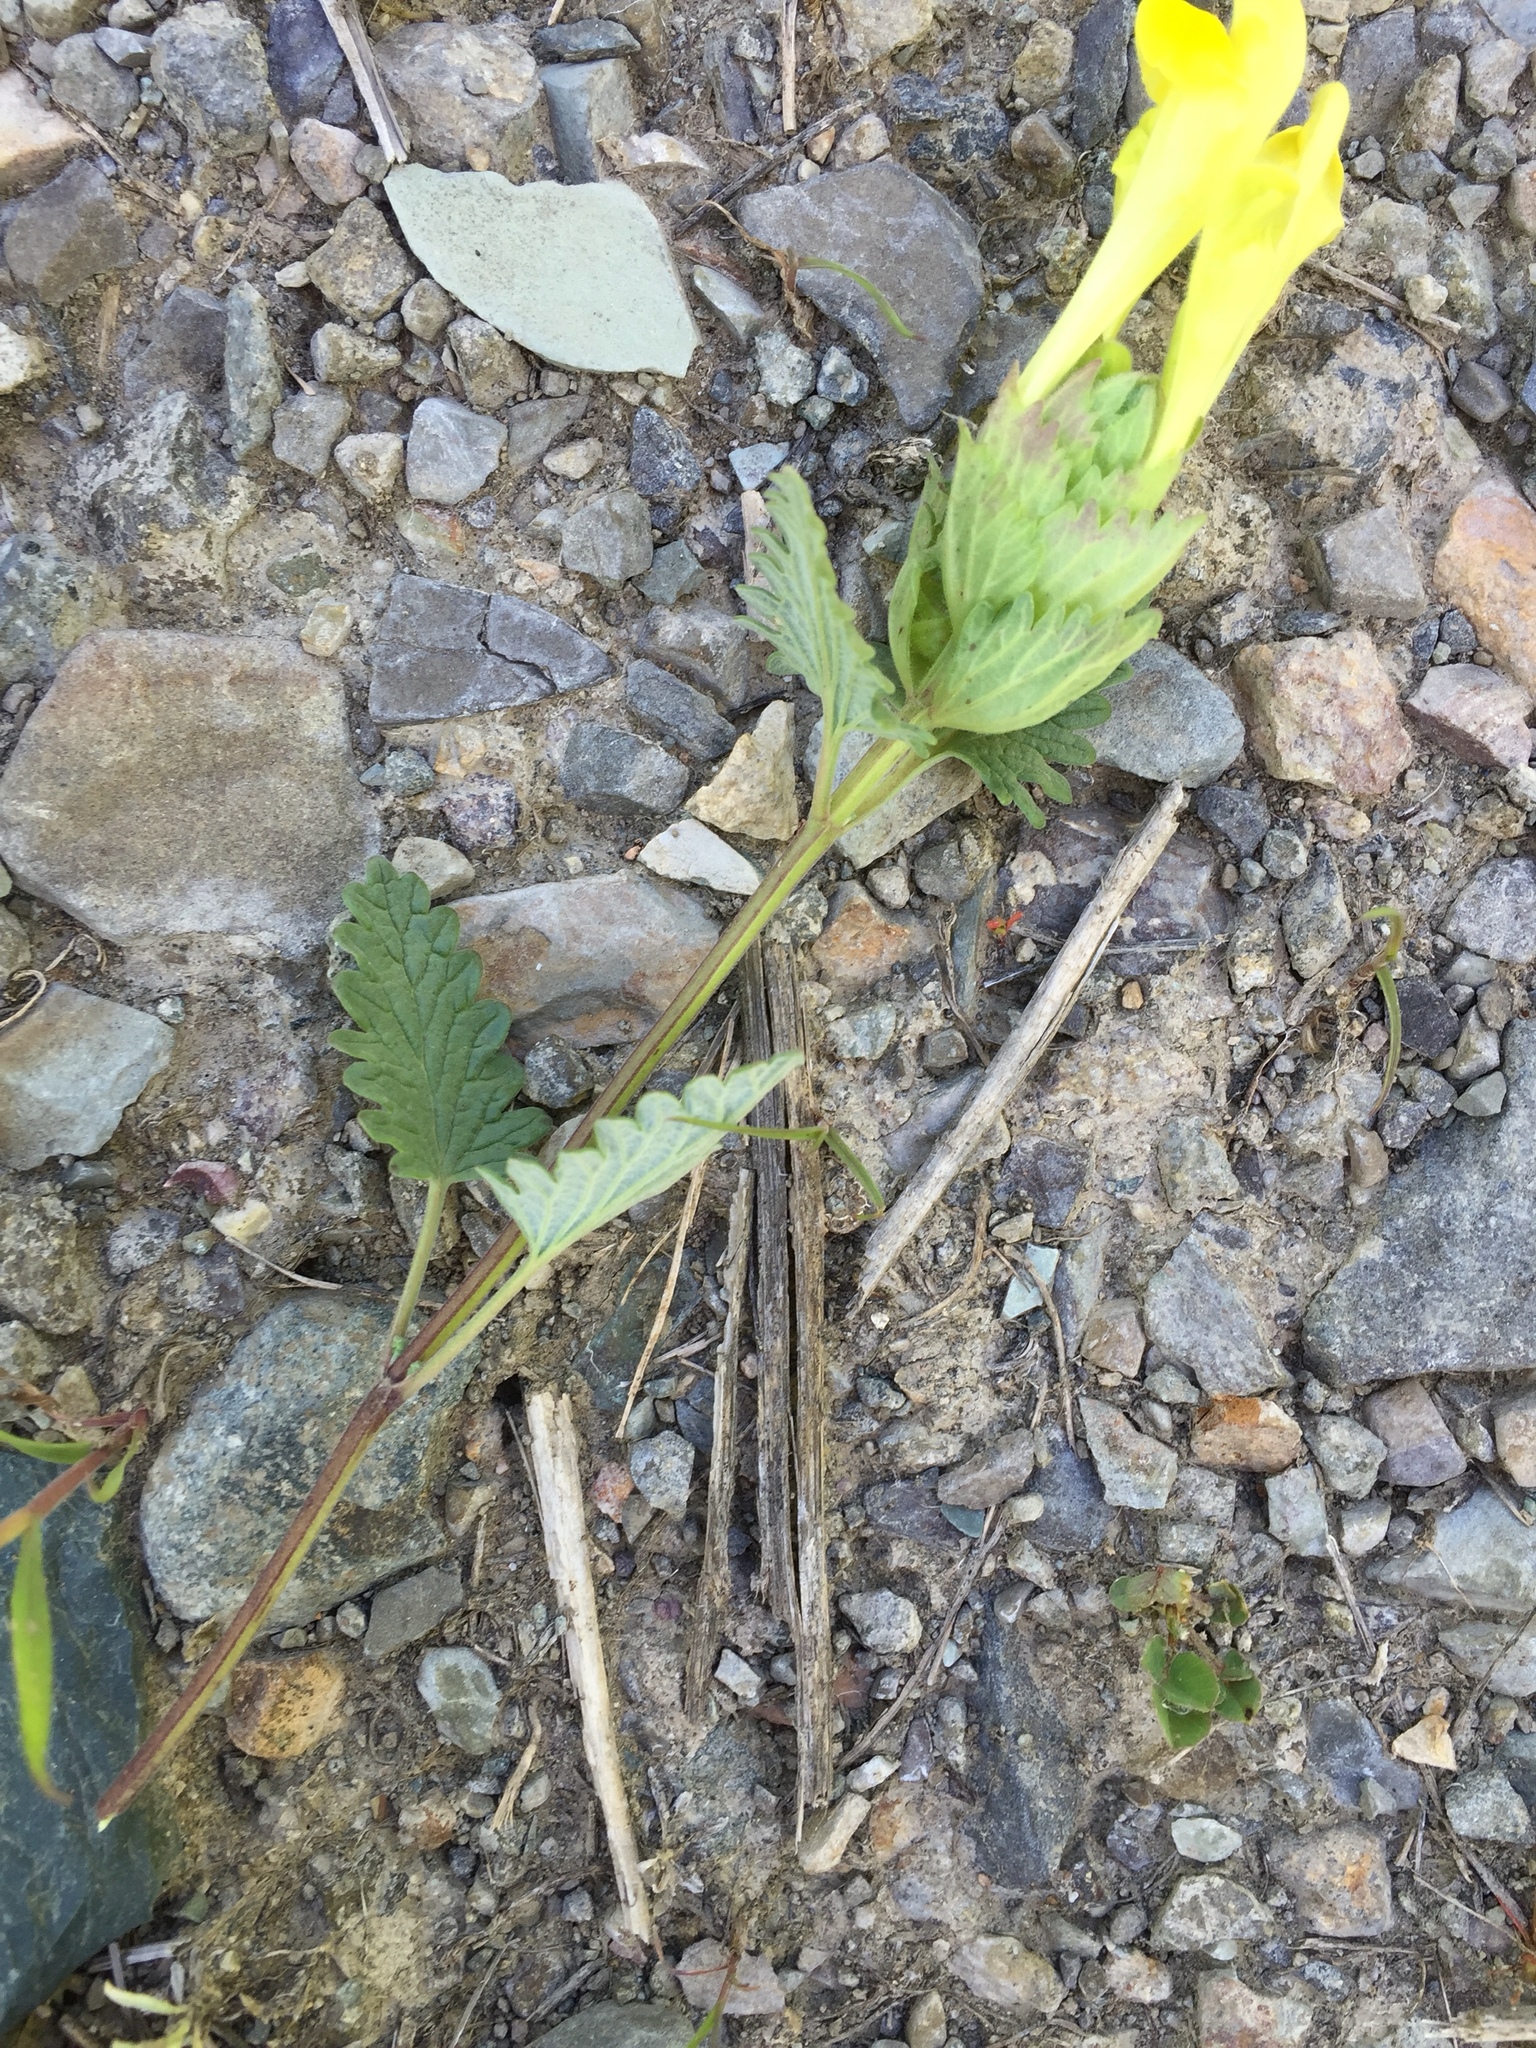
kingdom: Plantae
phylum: Tracheophyta
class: Magnoliopsida
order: Lamiales
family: Lamiaceae
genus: Scutellaria
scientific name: Scutellaria orientalis
